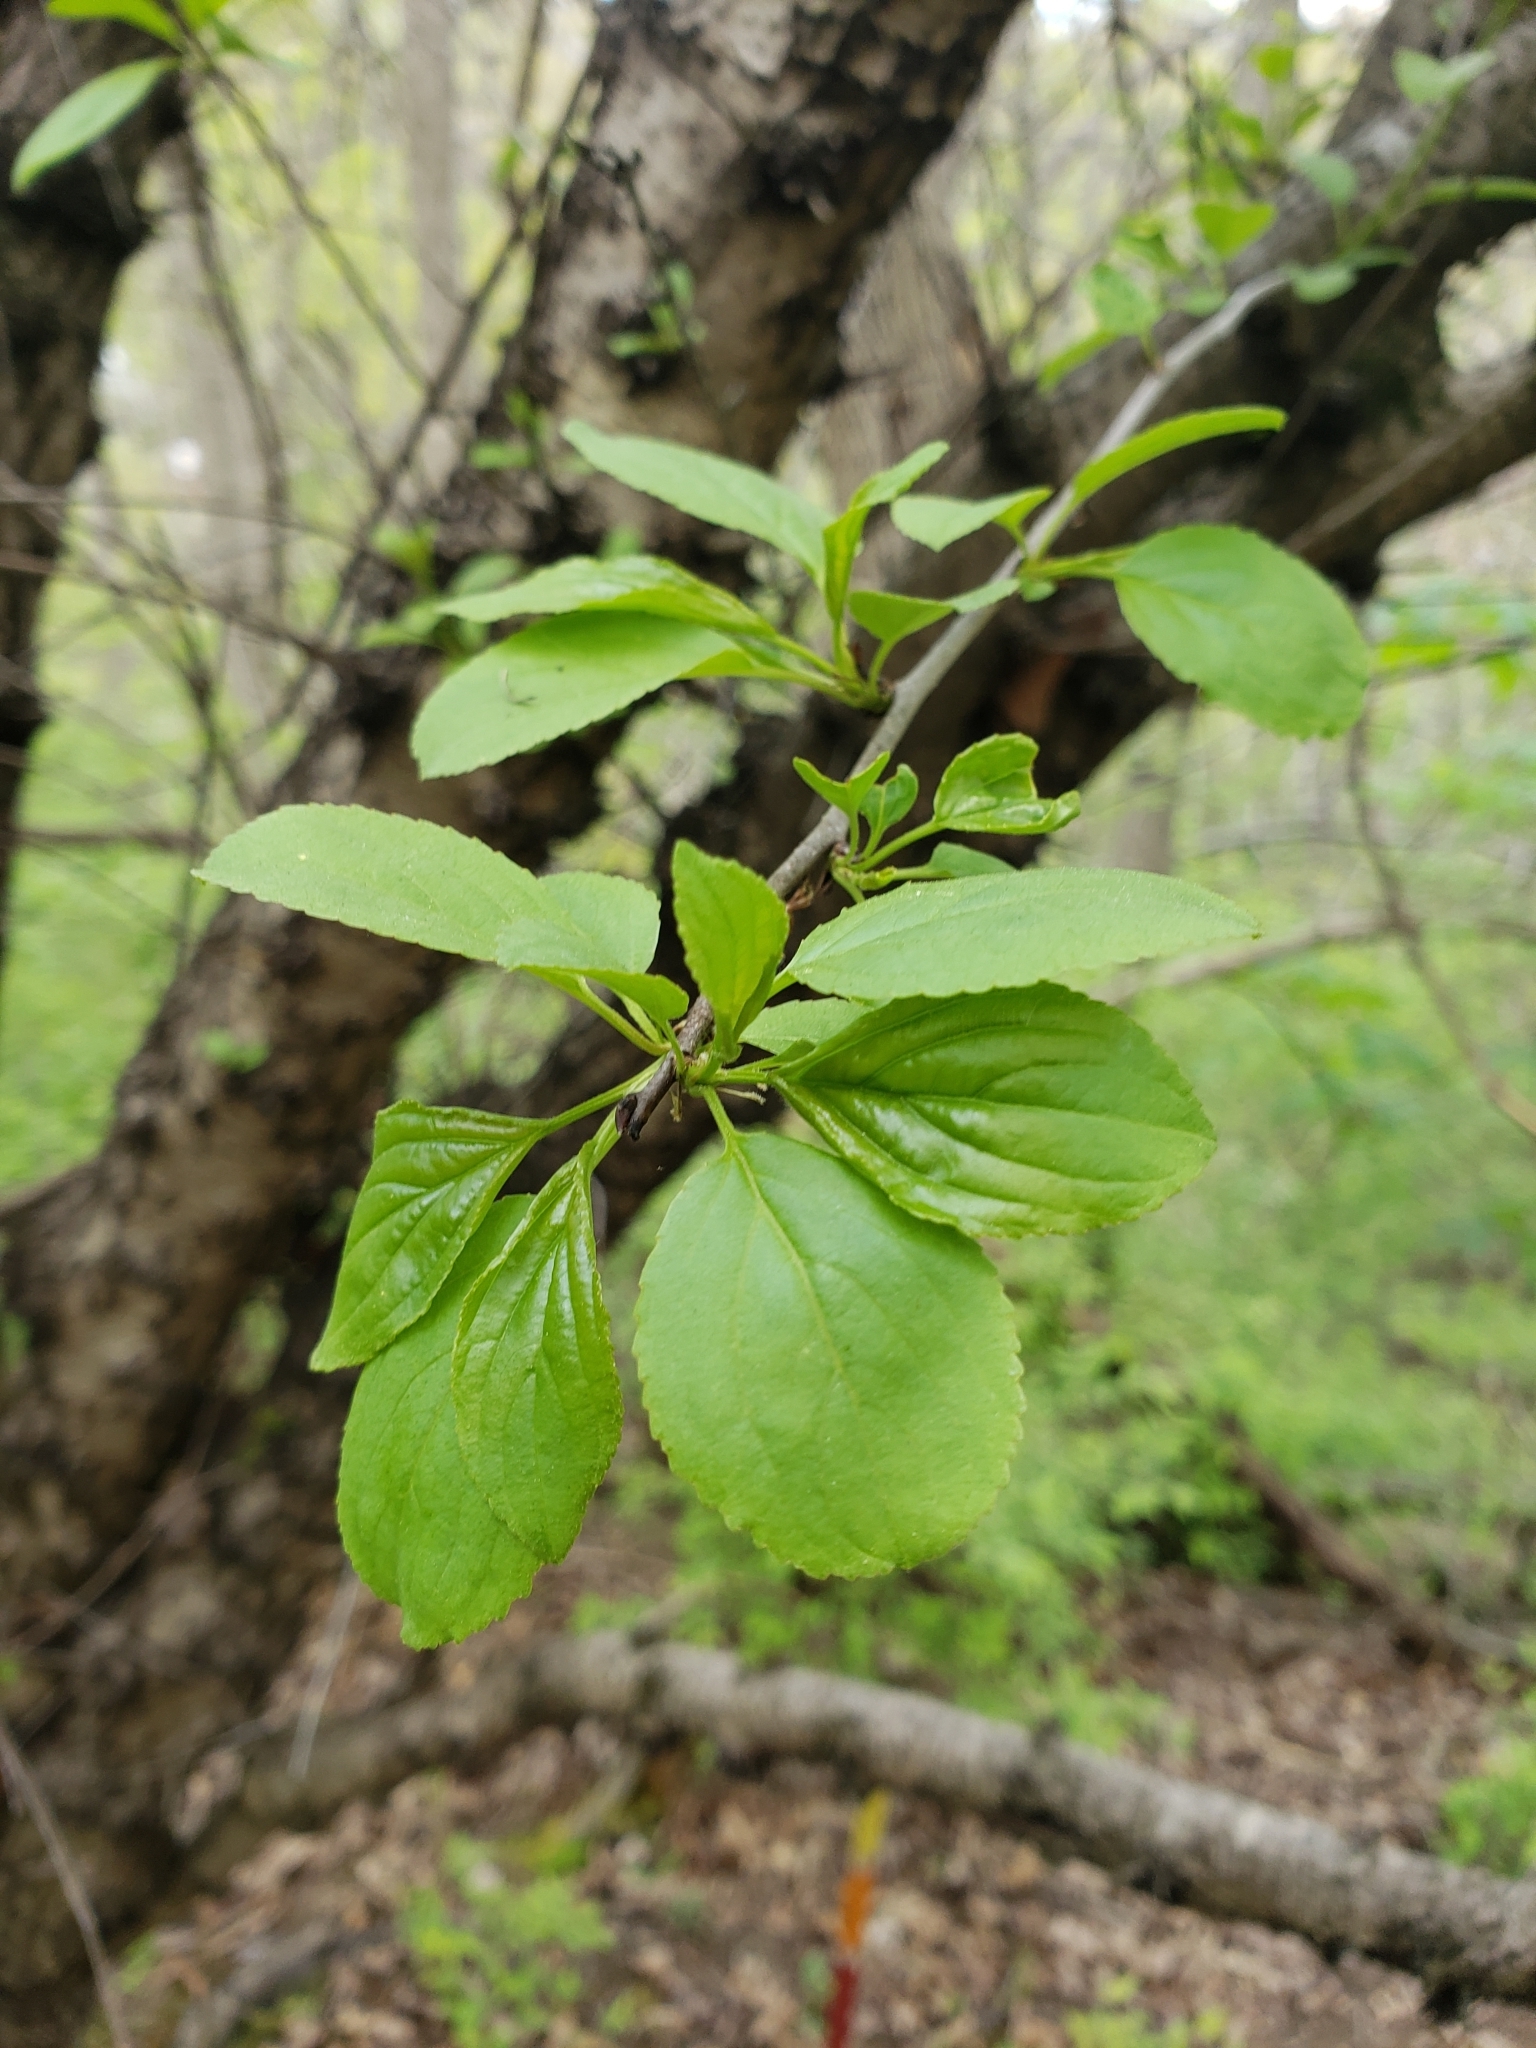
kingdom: Plantae
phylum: Tracheophyta
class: Magnoliopsida
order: Rosales
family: Rhamnaceae
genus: Rhamnus
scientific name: Rhamnus cathartica
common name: Common buckthorn
